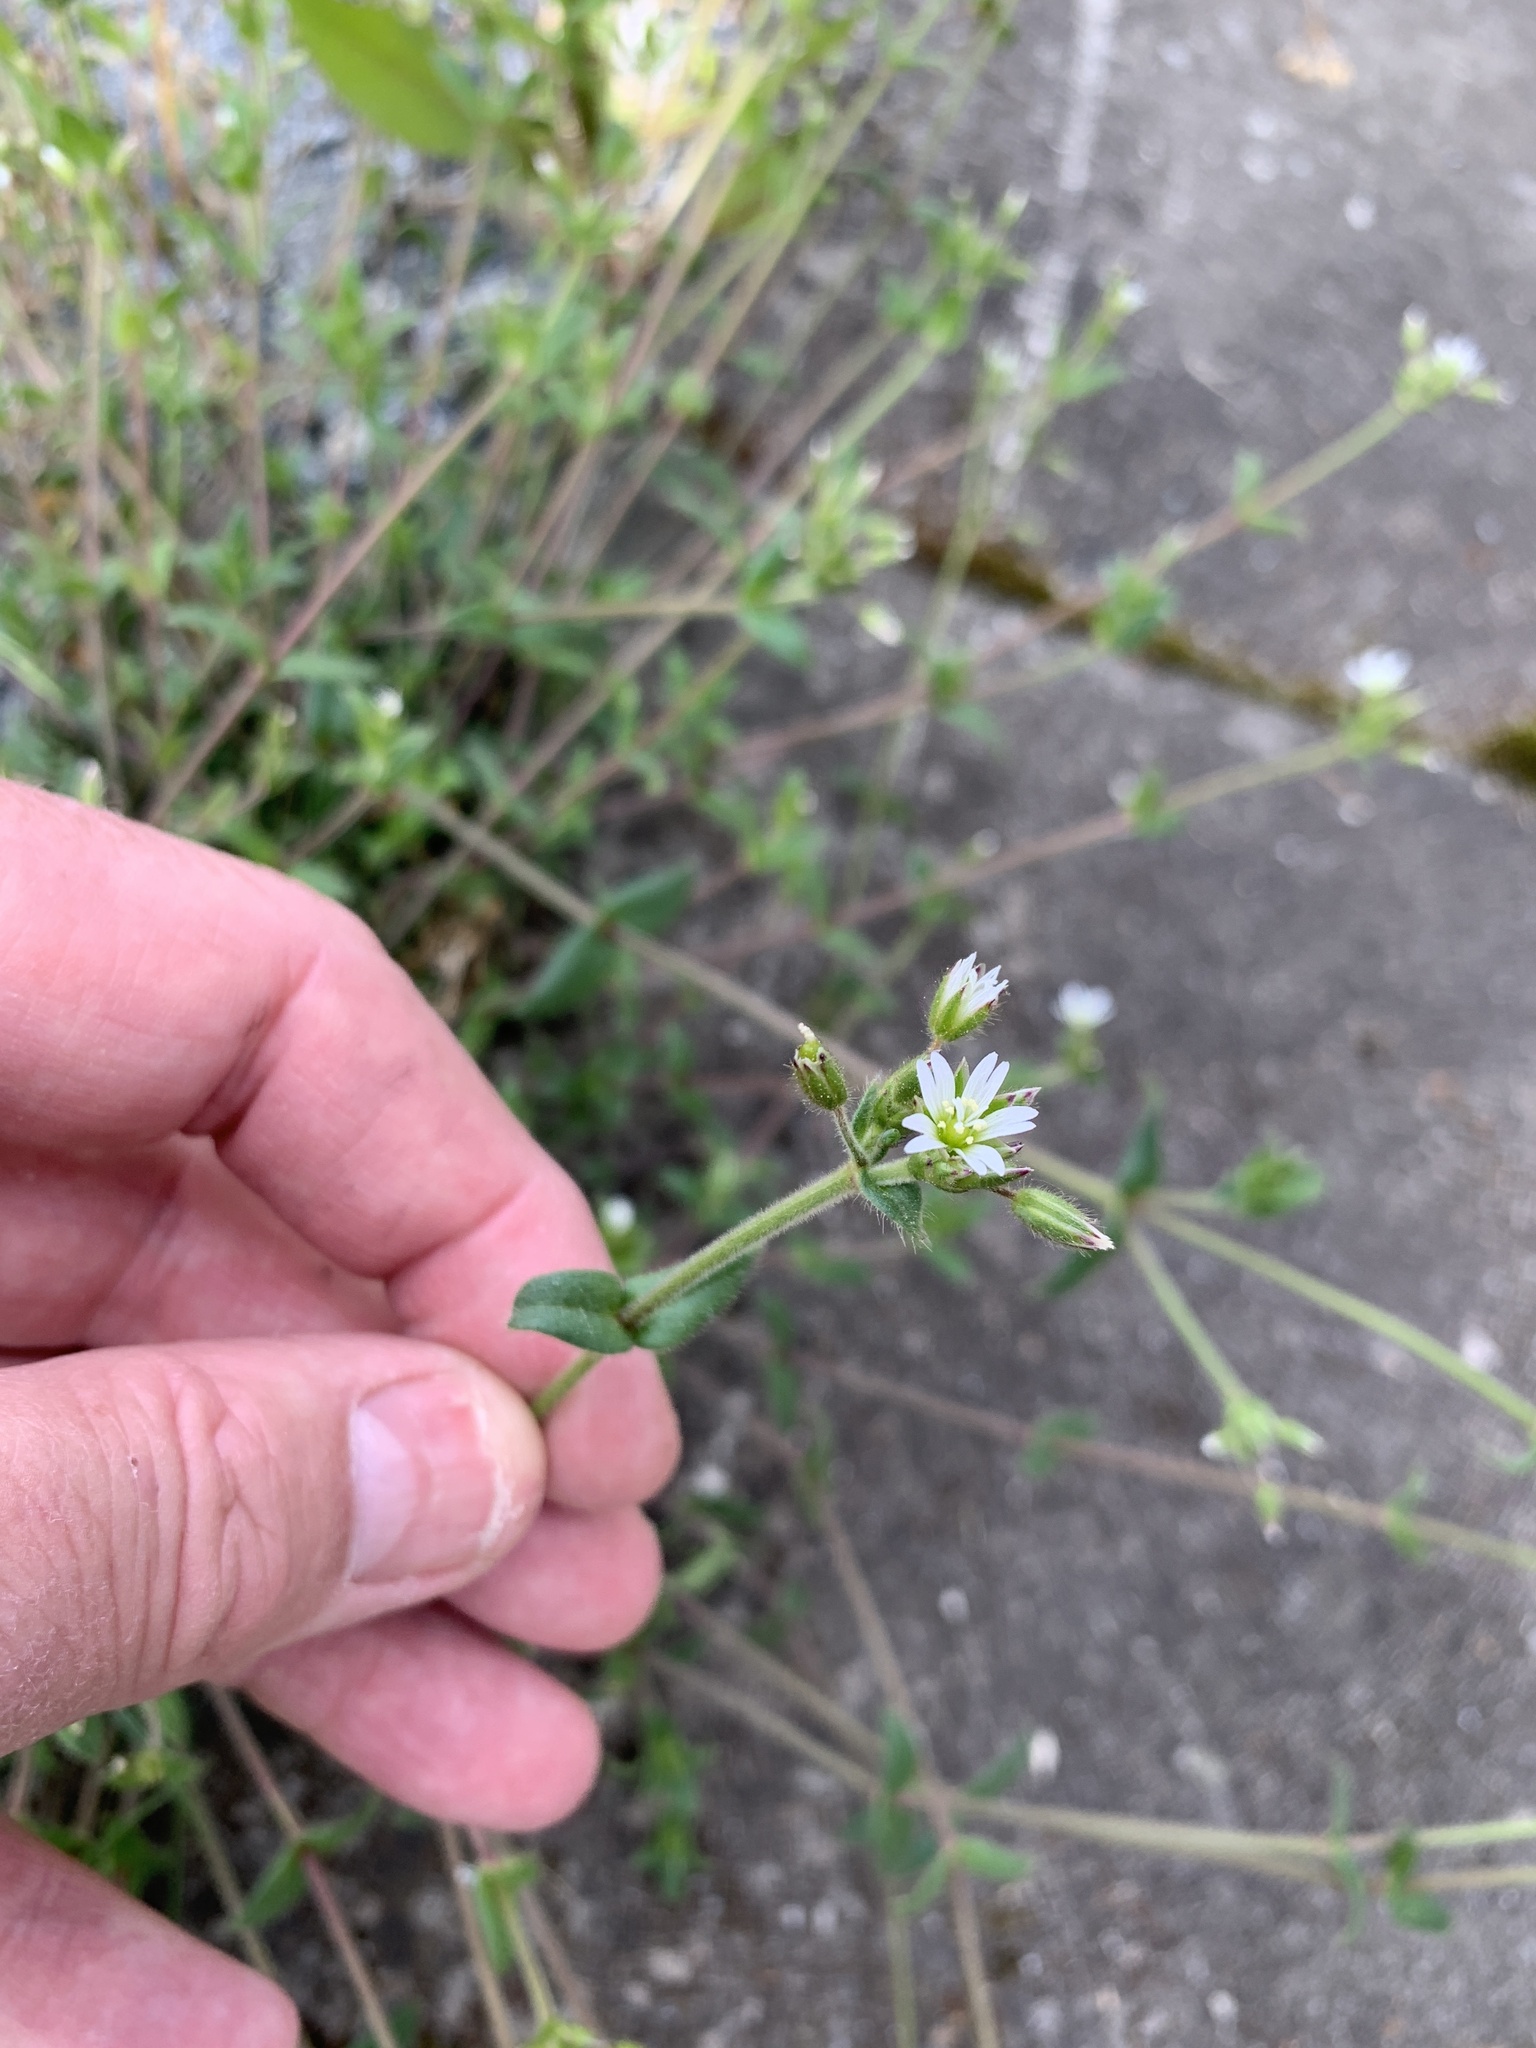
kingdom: Plantae
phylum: Tracheophyta
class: Magnoliopsida
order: Caryophyllales
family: Caryophyllaceae
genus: Cerastium
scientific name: Cerastium holosteoides
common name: Big chickweed
